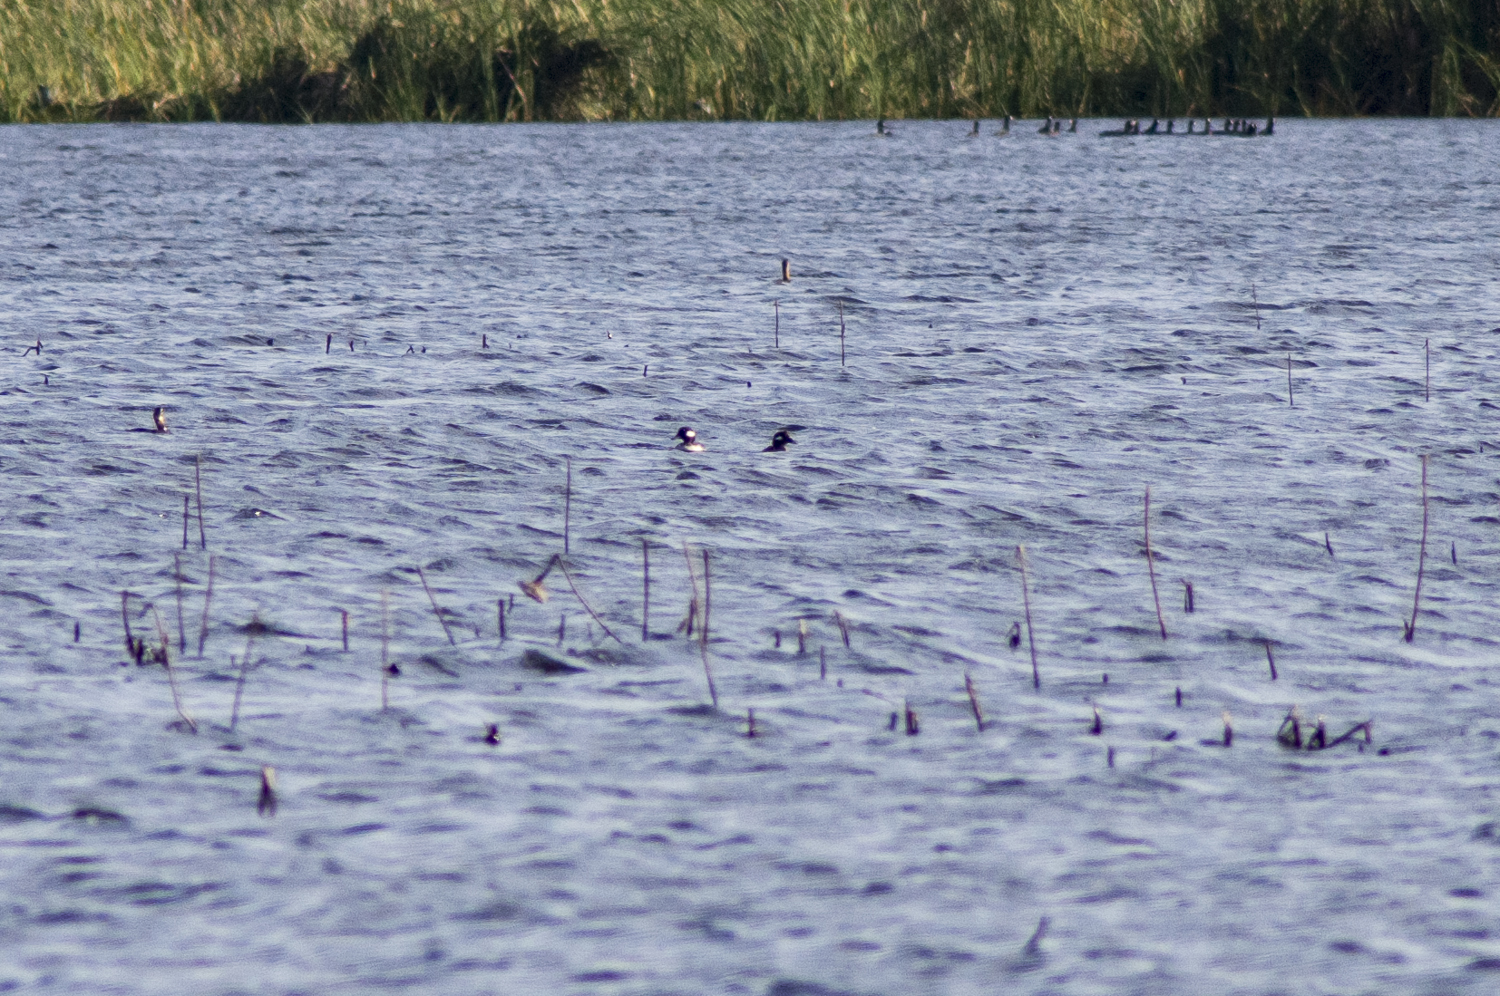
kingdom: Animalia
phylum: Chordata
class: Aves
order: Anseriformes
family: Anatidae
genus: Bucephala
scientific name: Bucephala albeola
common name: Bufflehead
